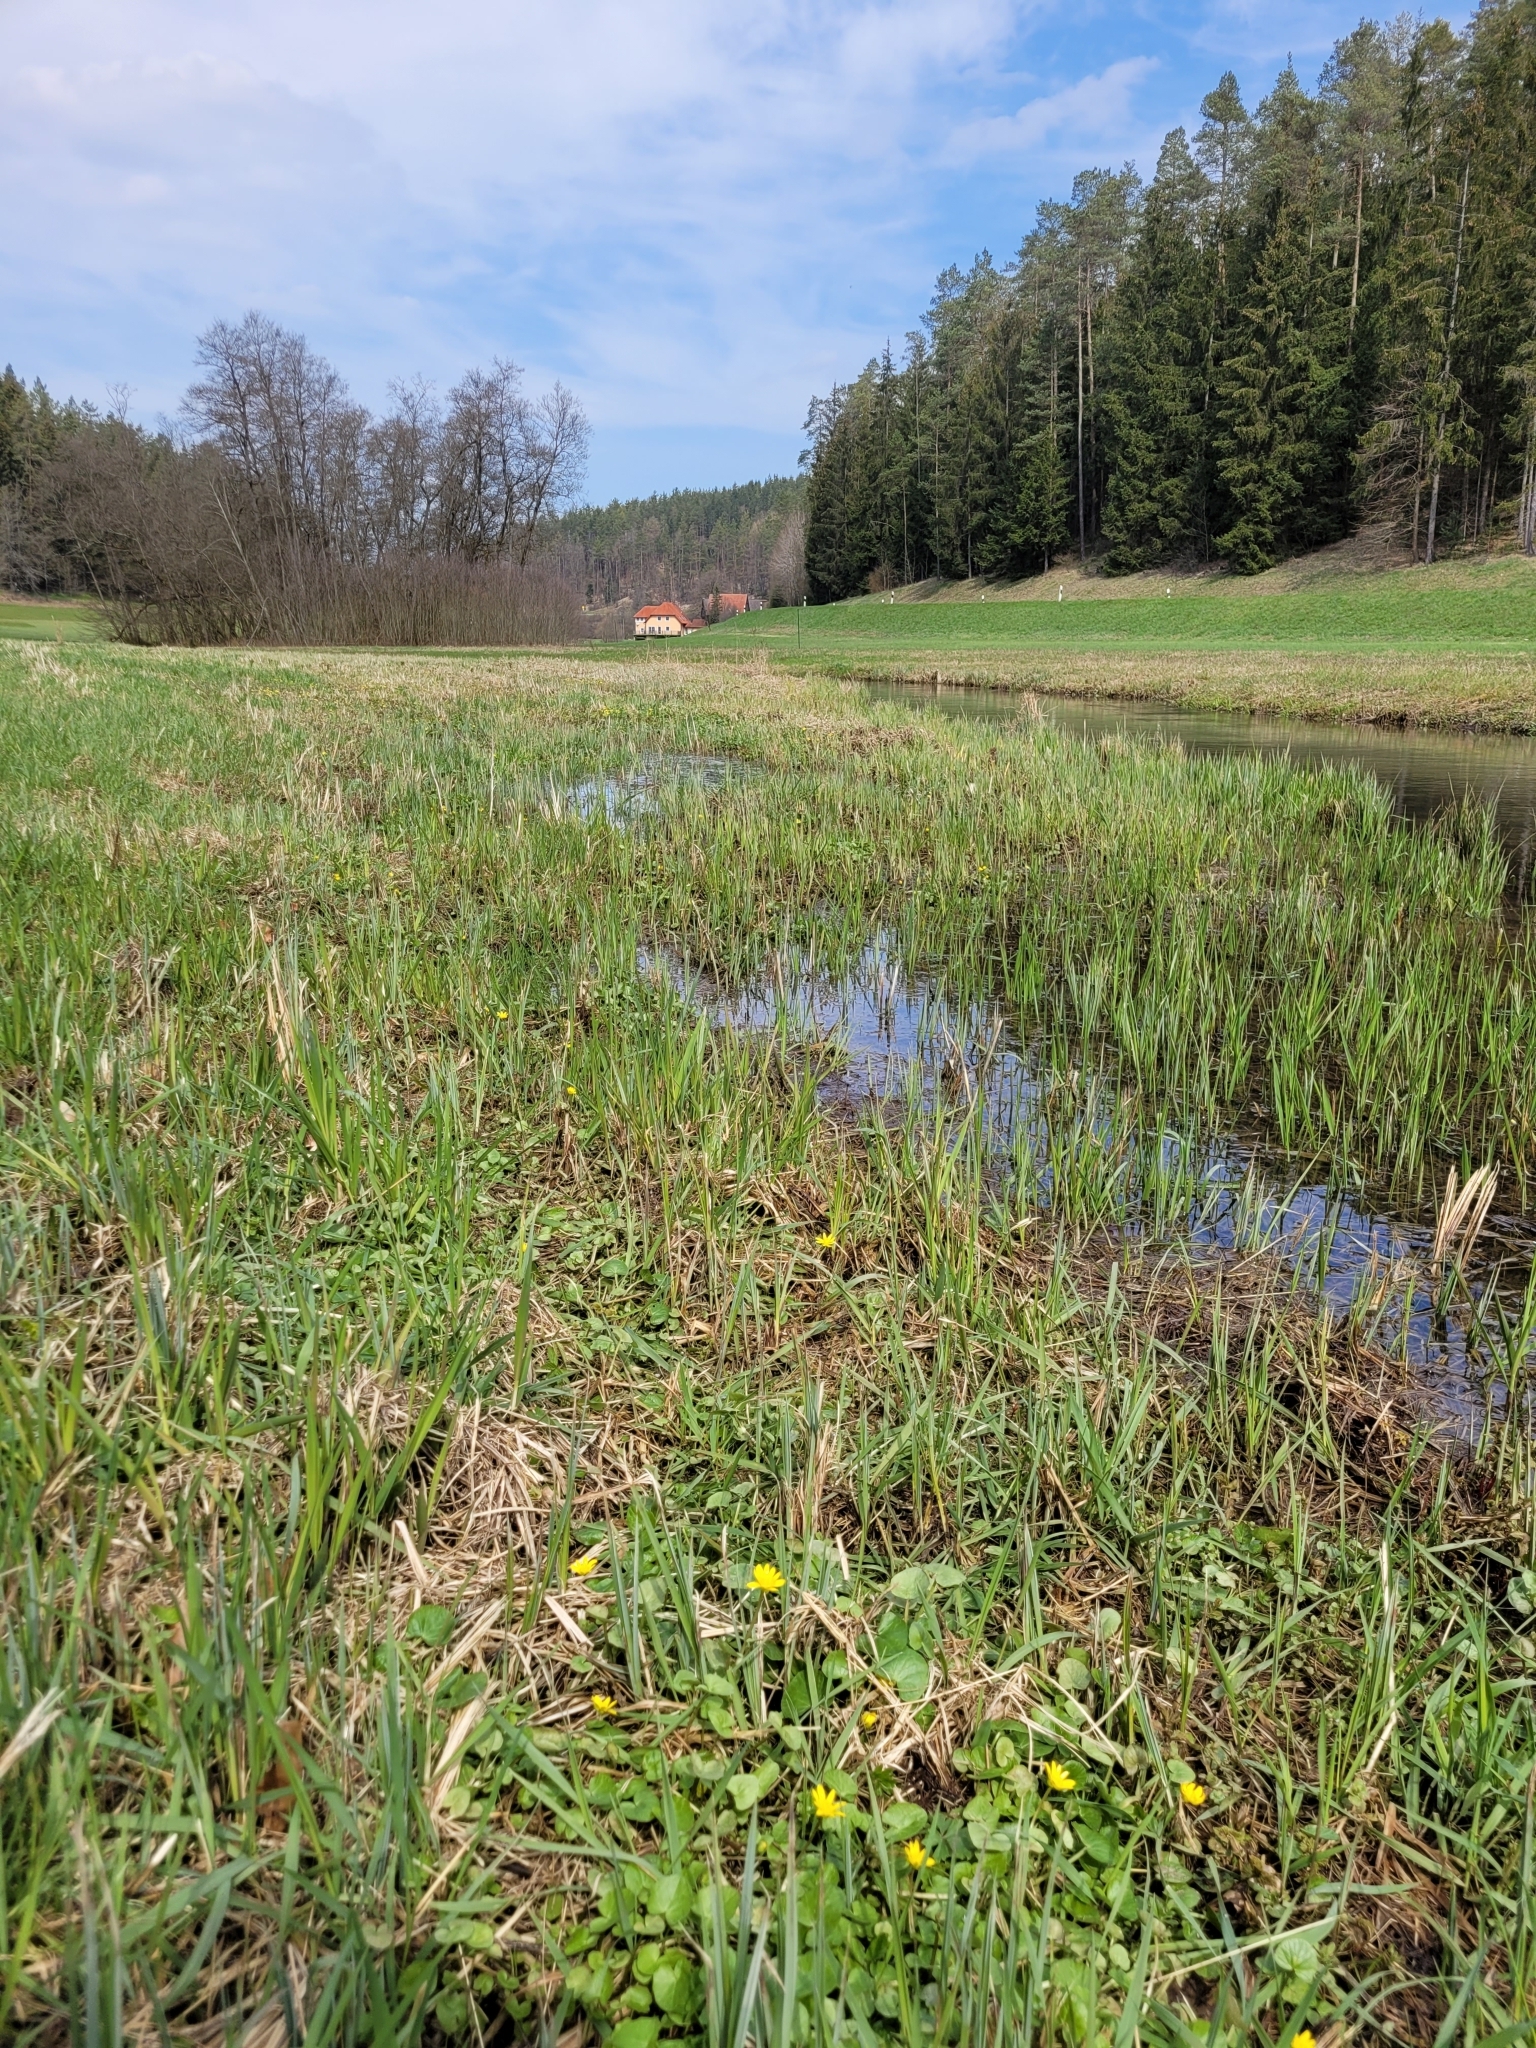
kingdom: Plantae
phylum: Tracheophyta
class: Magnoliopsida
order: Ranunculales
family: Ranunculaceae
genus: Ficaria
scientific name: Ficaria verna
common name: Lesser celandine
